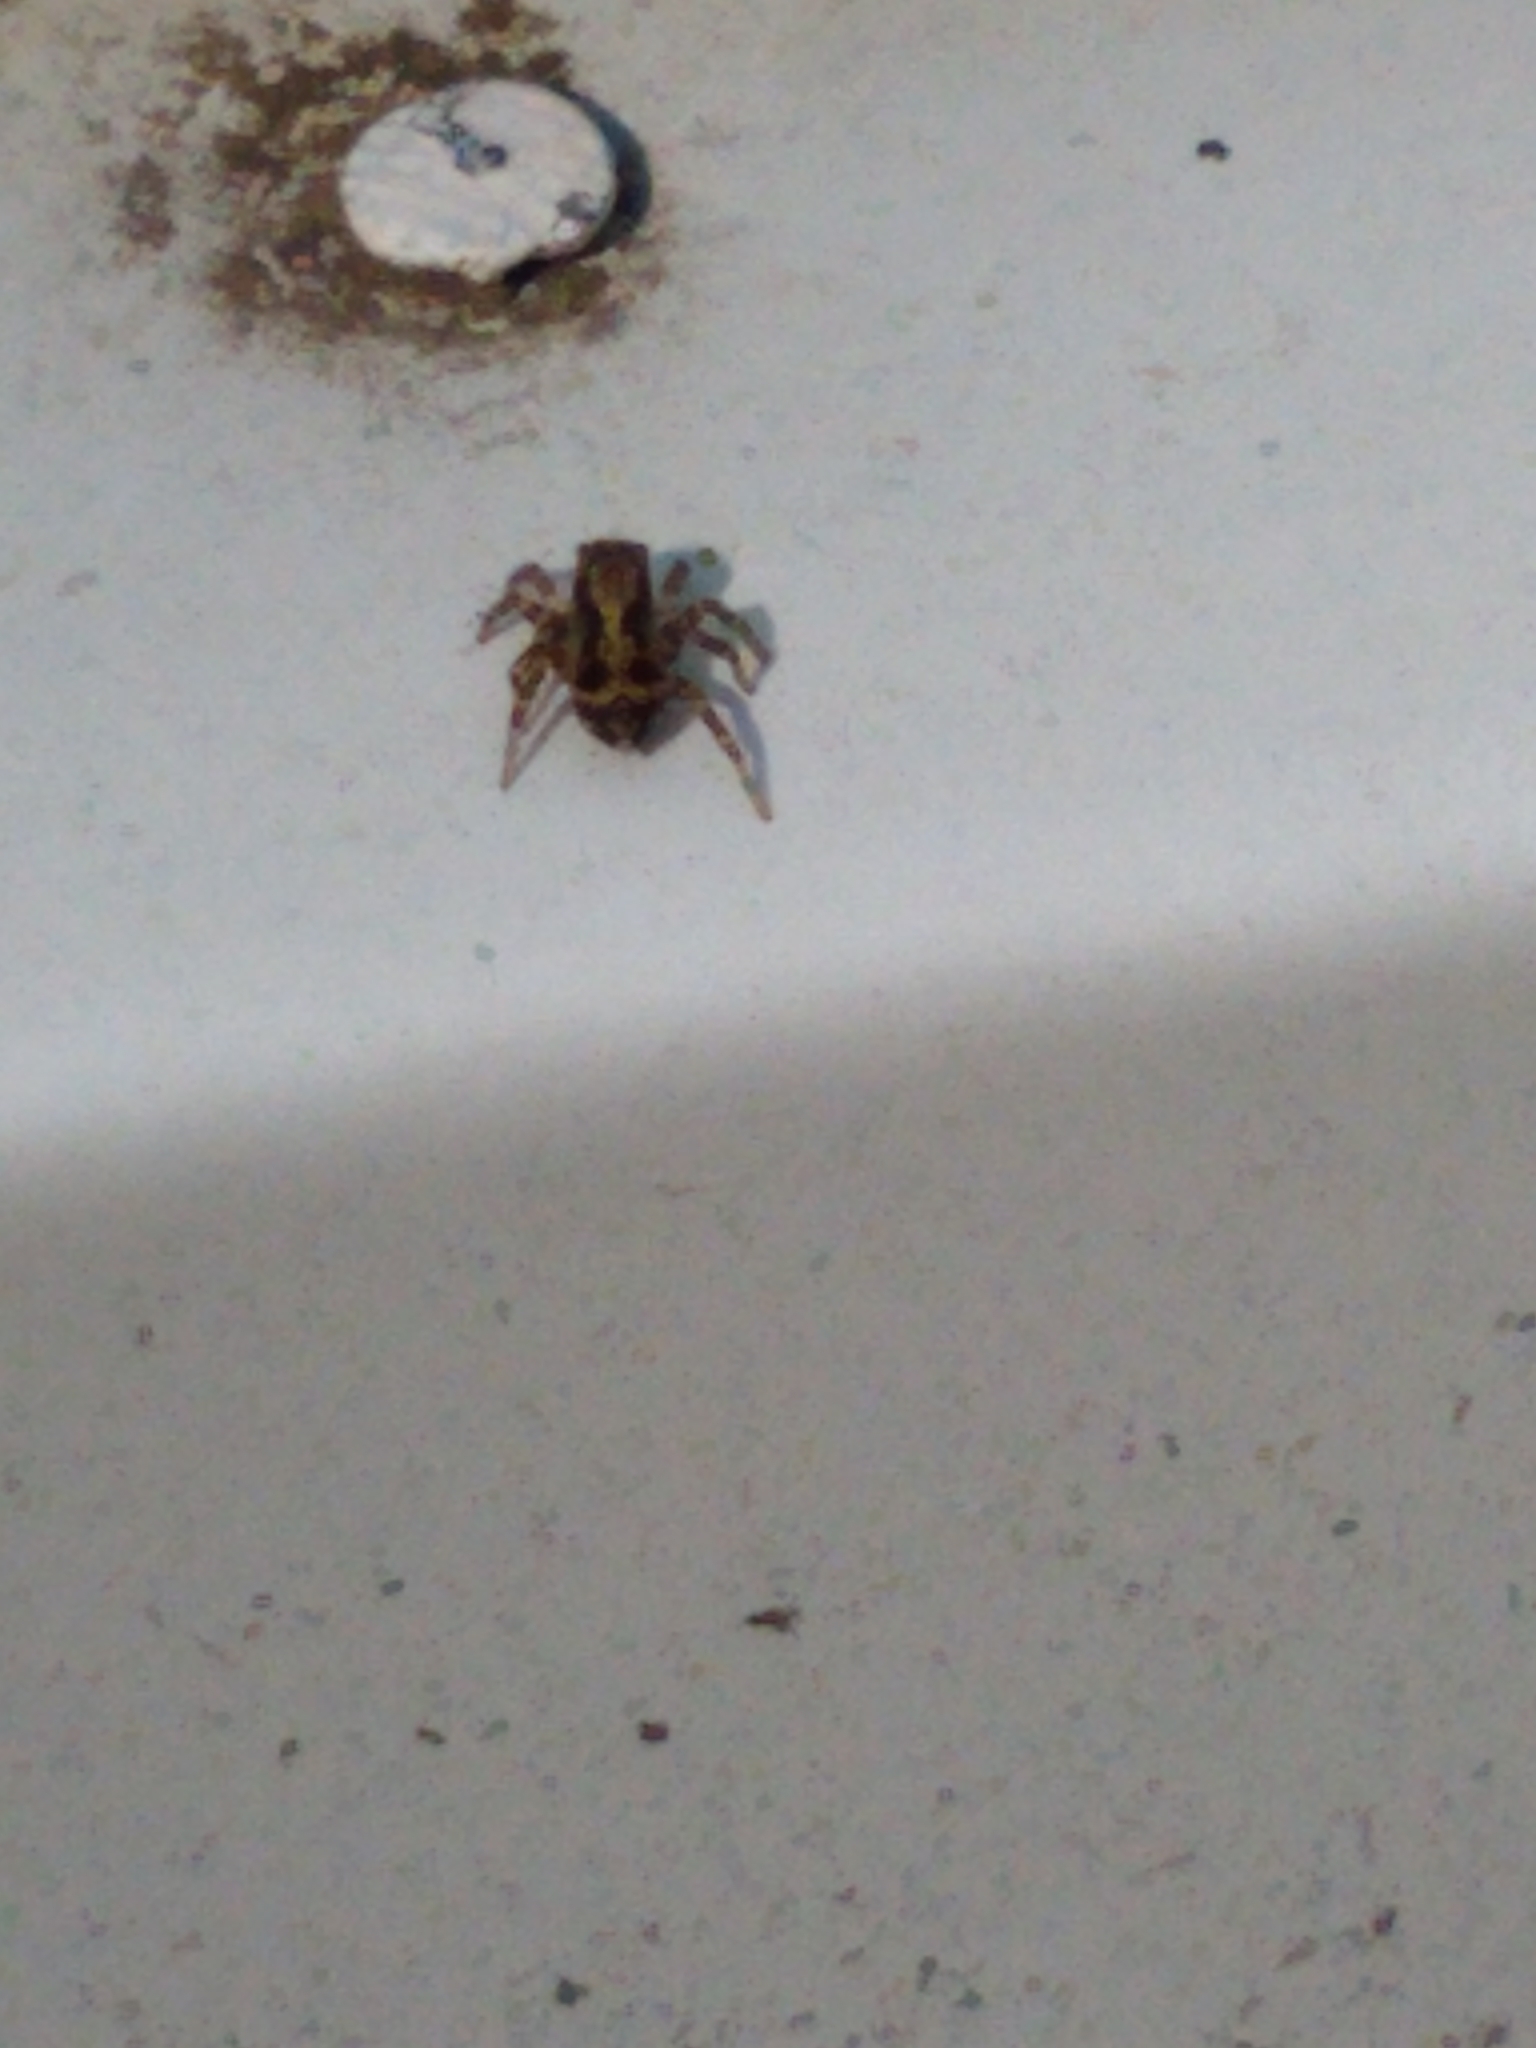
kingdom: Animalia
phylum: Arthropoda
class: Arachnida
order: Araneae
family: Salticidae
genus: Naphrys
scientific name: Naphrys pulex
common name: Flea jumping spider
